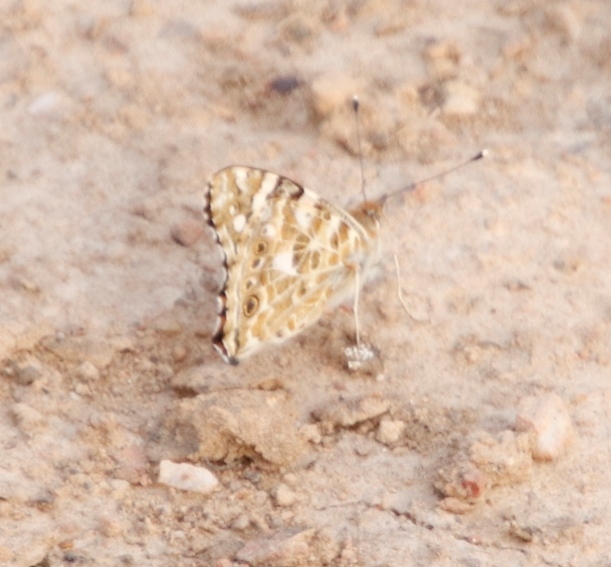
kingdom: Animalia
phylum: Arthropoda
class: Insecta
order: Lepidoptera
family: Nymphalidae
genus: Vanessa
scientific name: Vanessa cardui
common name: Painted lady
